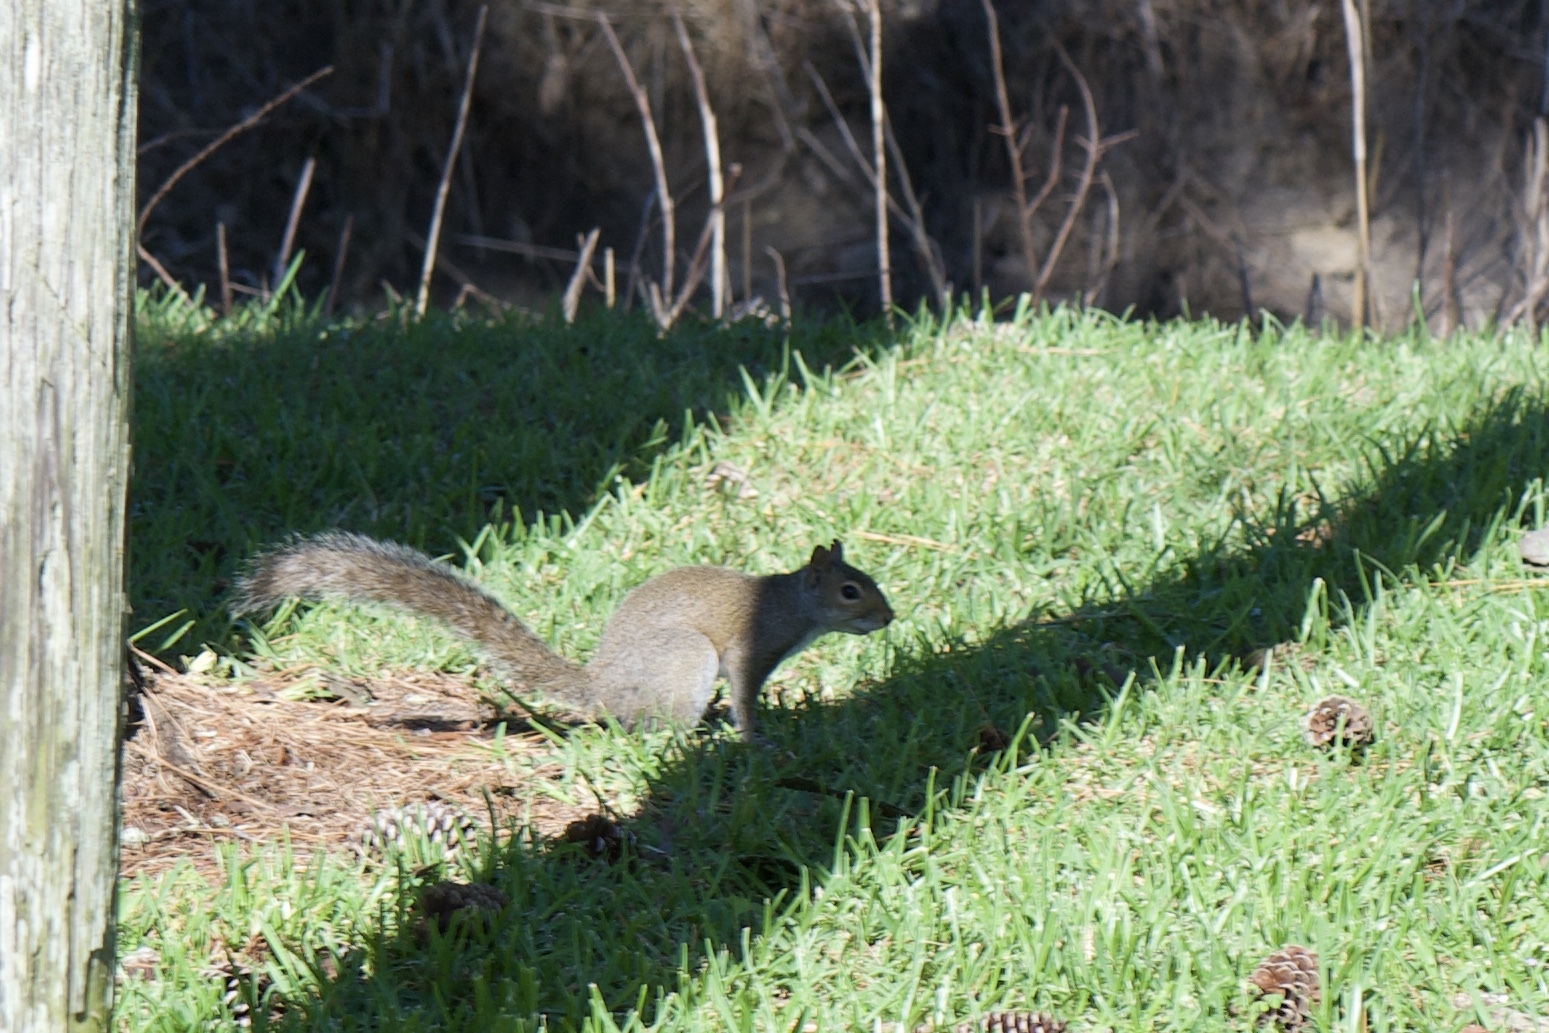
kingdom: Animalia
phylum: Chordata
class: Mammalia
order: Rodentia
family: Sciuridae
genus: Sciurus
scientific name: Sciurus carolinensis
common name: Eastern gray squirrel
